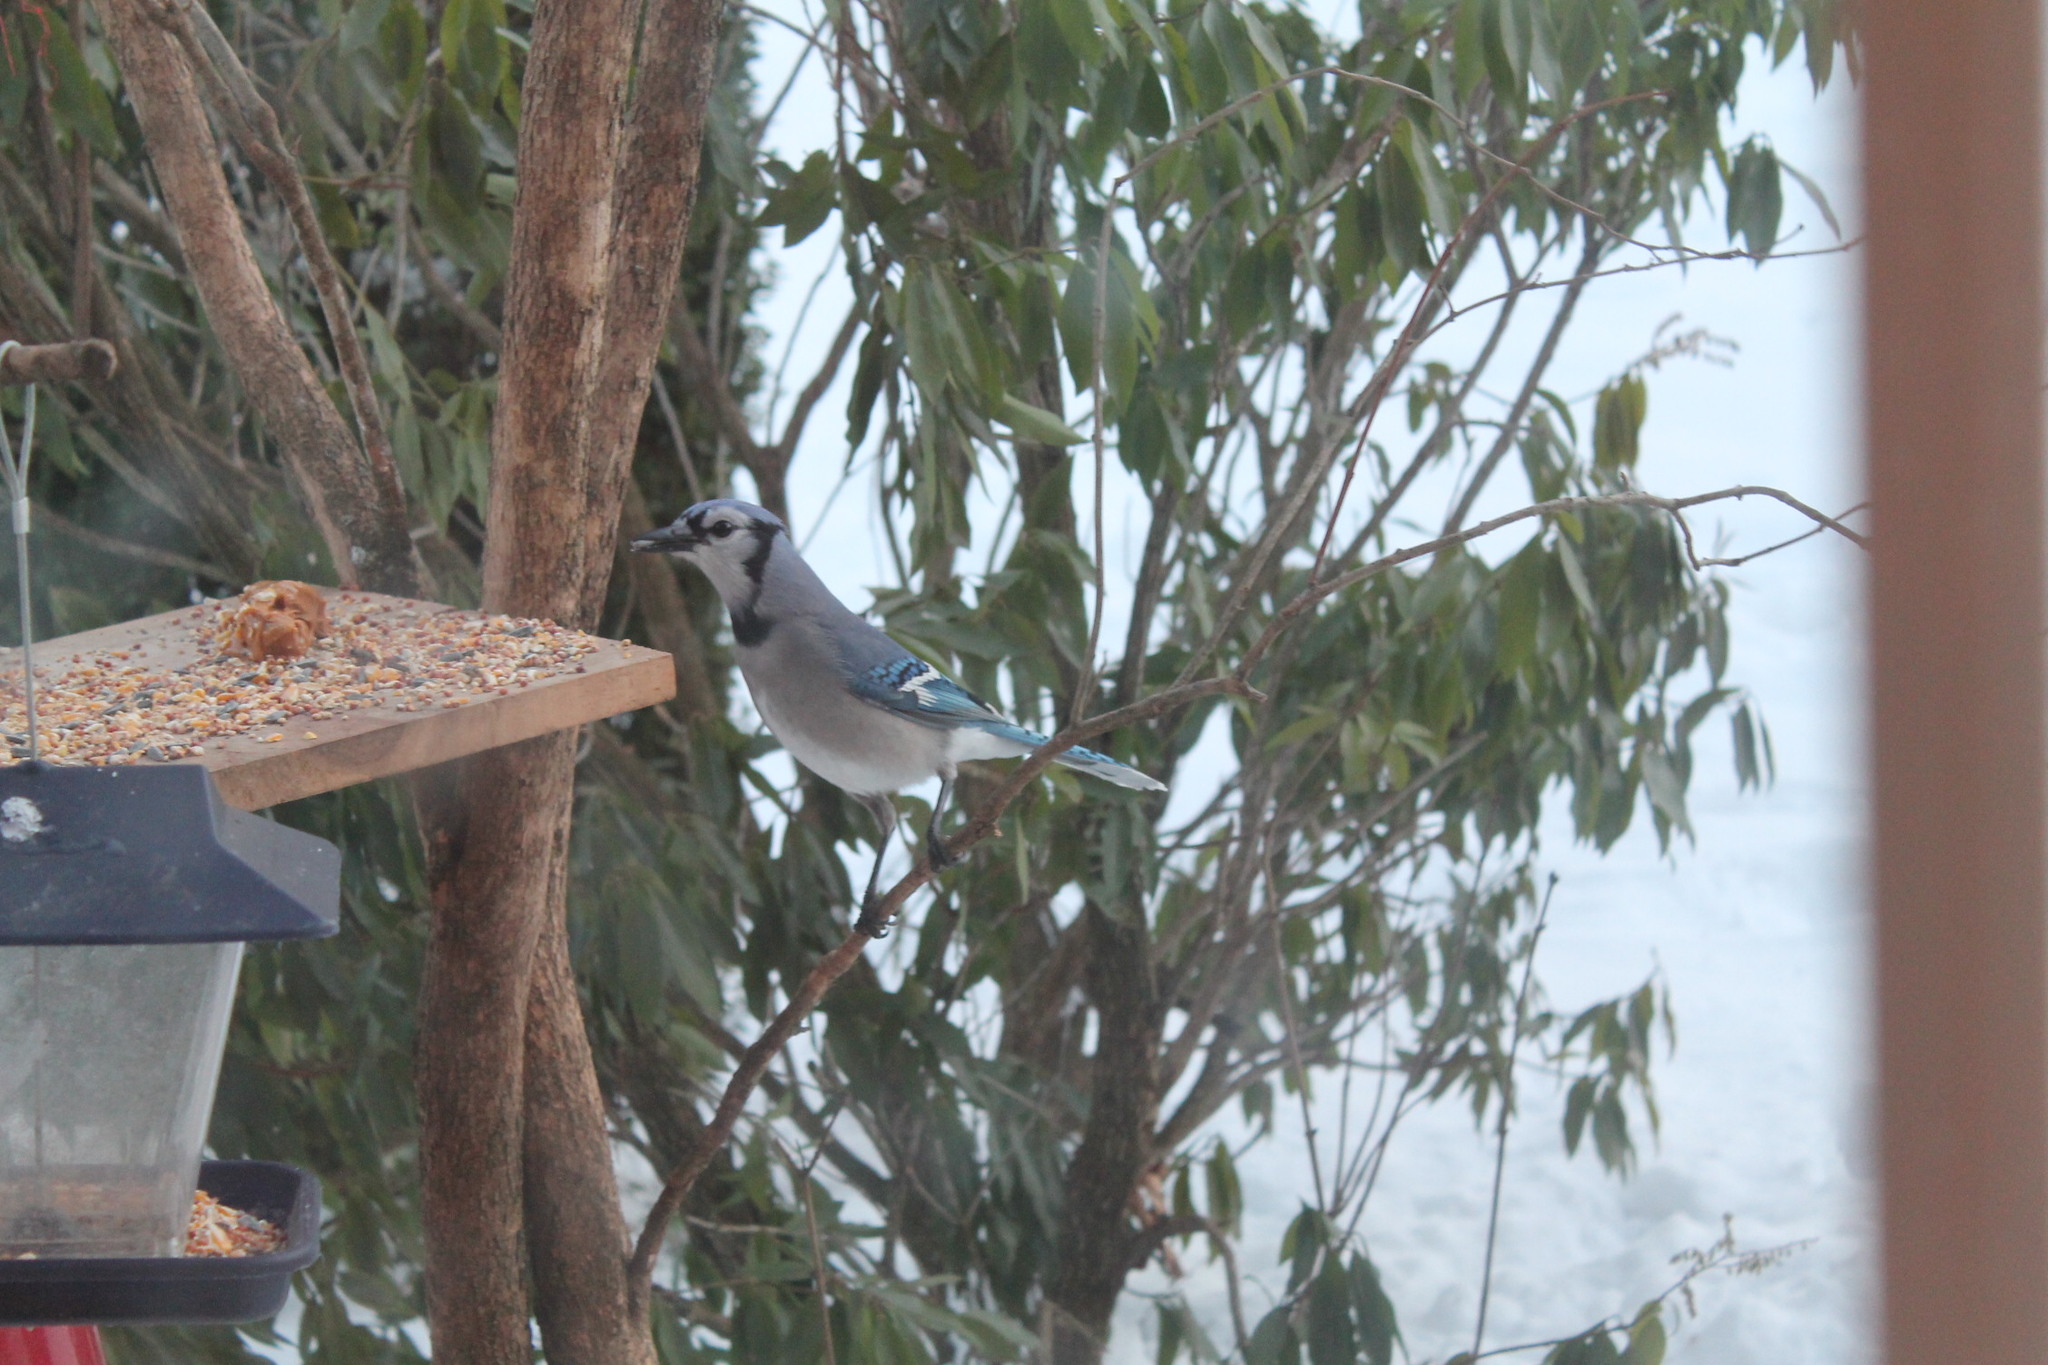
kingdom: Animalia
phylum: Chordata
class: Aves
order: Passeriformes
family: Corvidae
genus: Cyanocitta
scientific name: Cyanocitta cristata
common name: Blue jay
